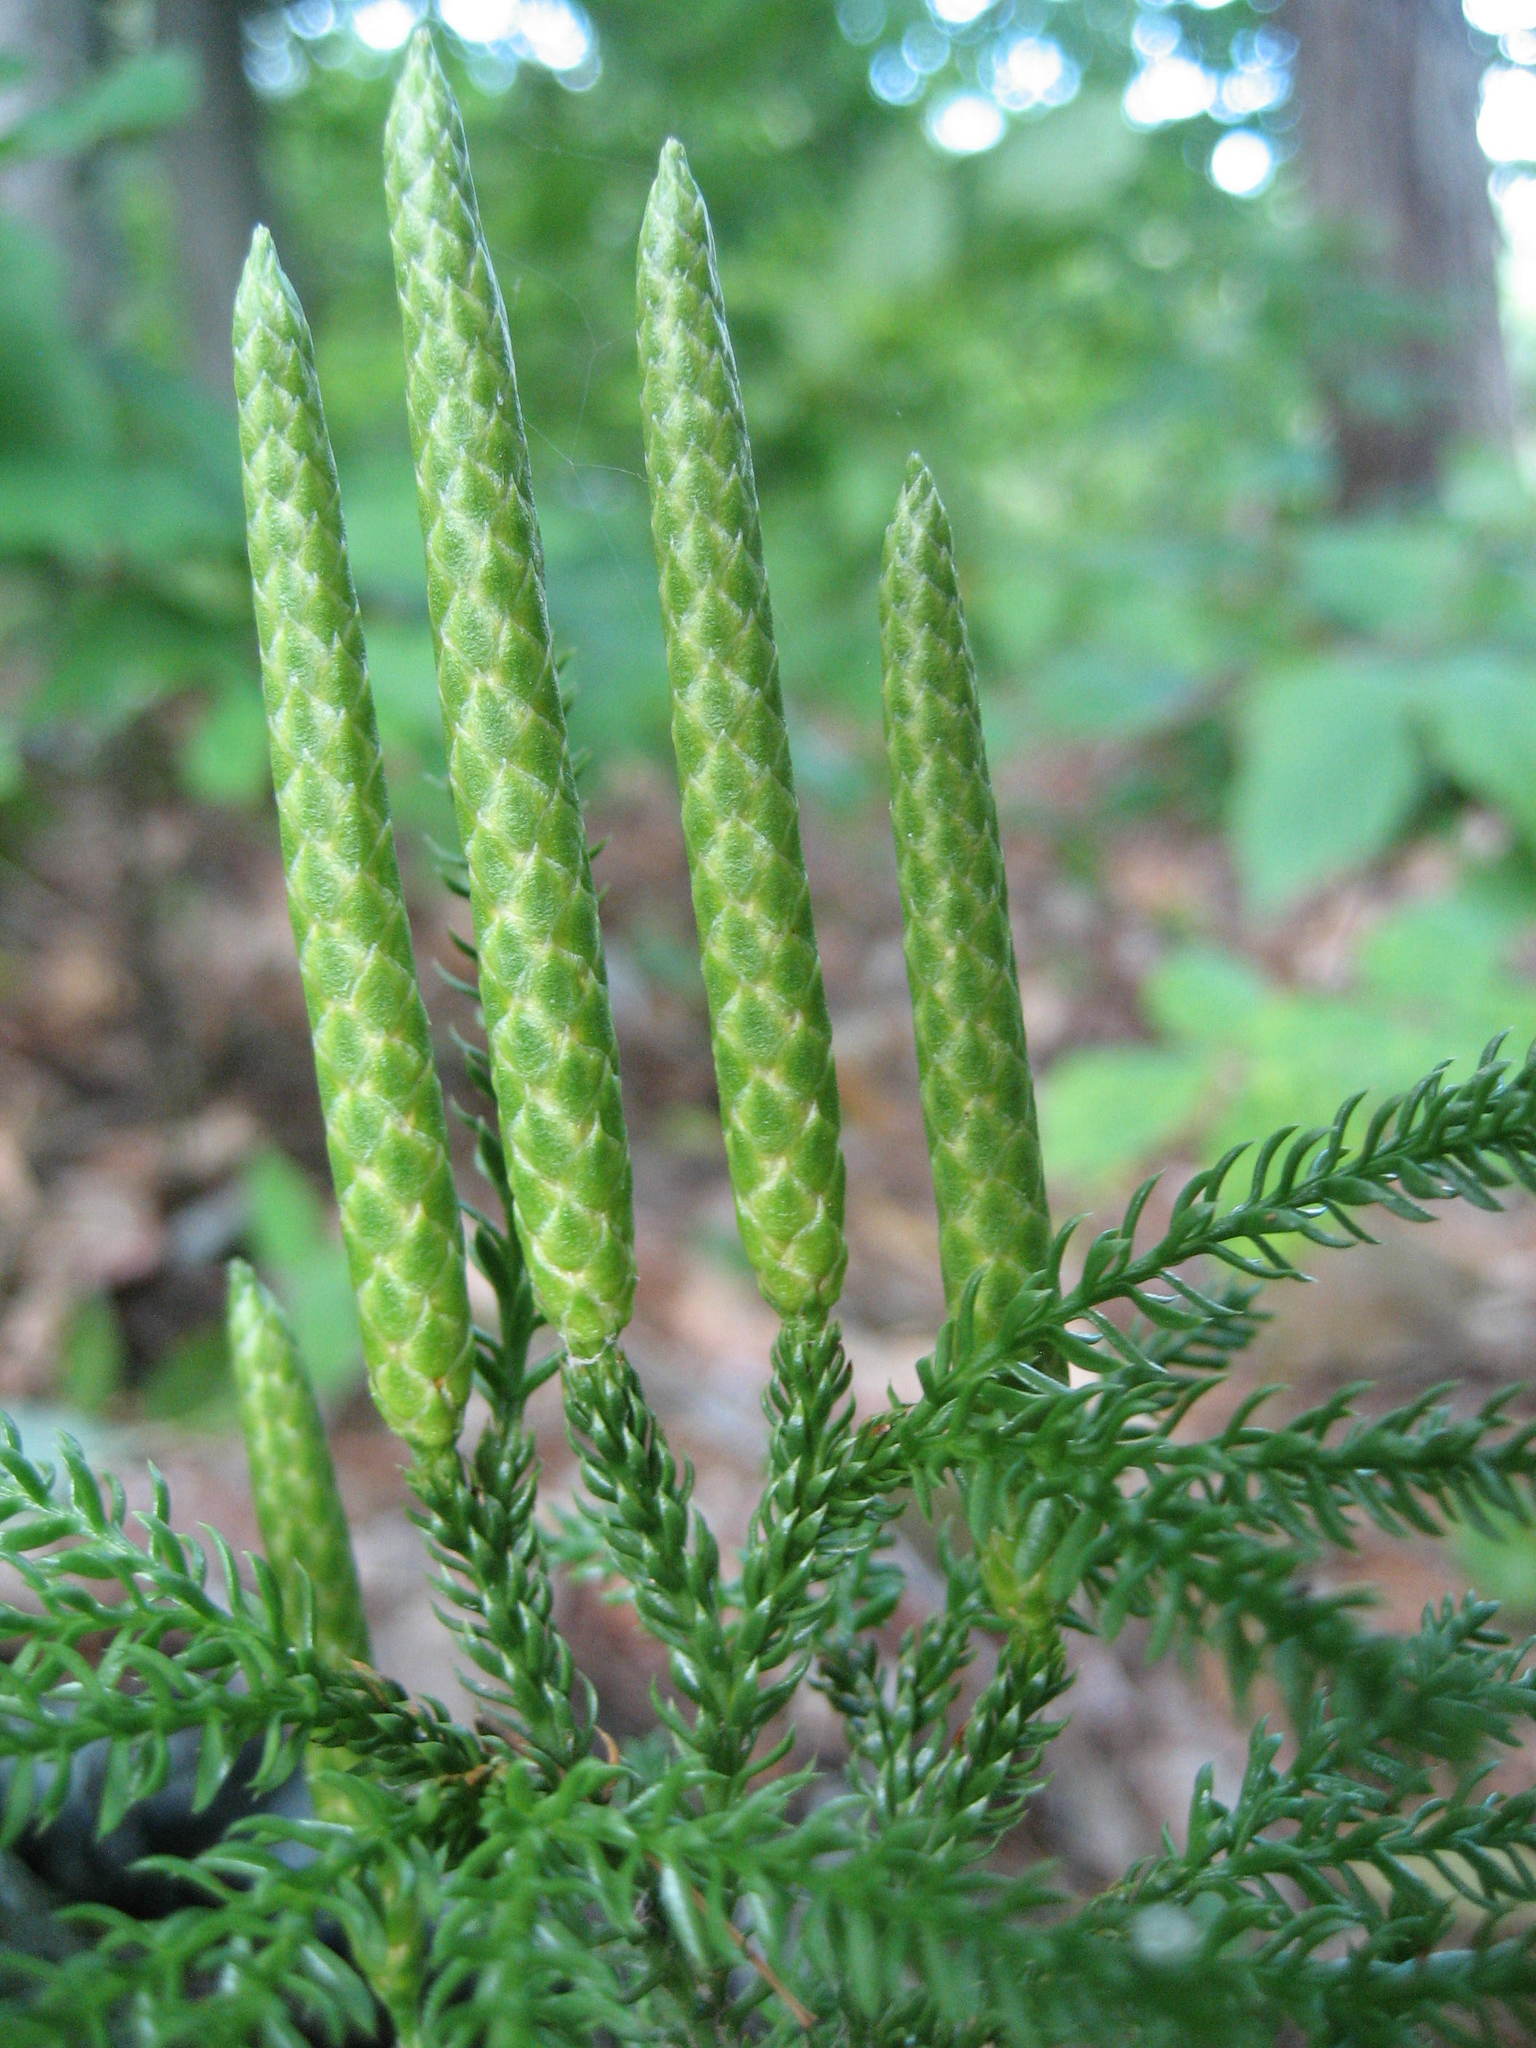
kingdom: Plantae
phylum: Tracheophyta
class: Lycopodiopsida
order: Lycopodiales
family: Lycopodiaceae
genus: Dendrolycopodium
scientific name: Dendrolycopodium dendroideum
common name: Northern tree-clubmoss
